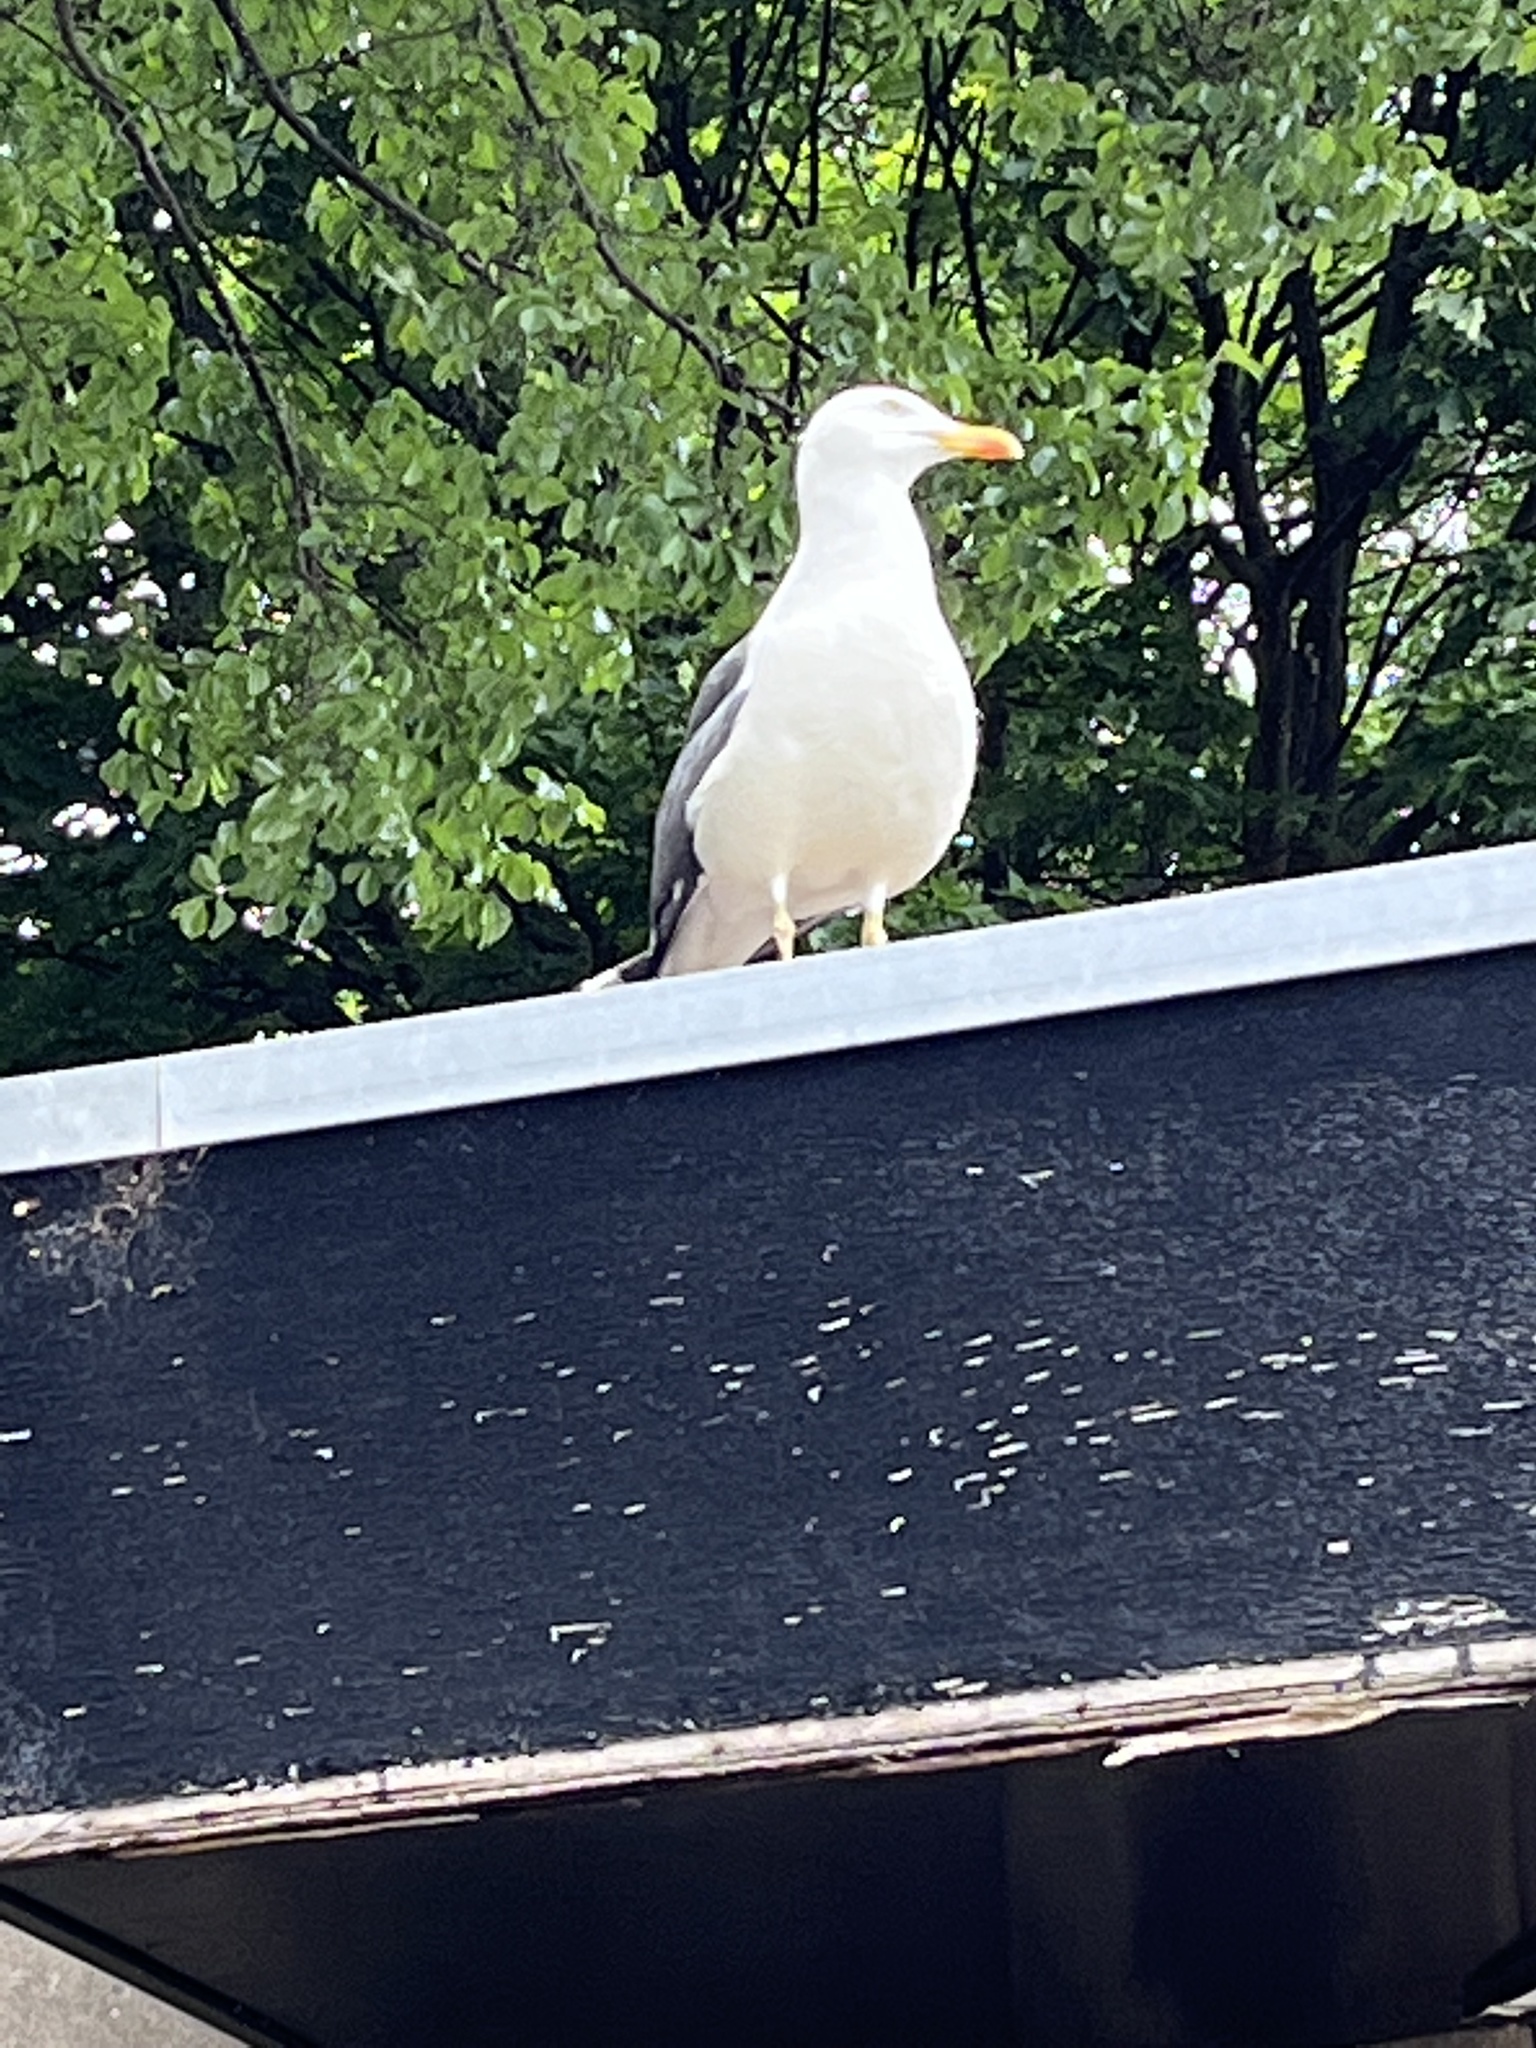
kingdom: Animalia
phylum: Chordata
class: Aves
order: Charadriiformes
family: Laridae
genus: Larus
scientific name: Larus argentatus
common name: Herring gull
